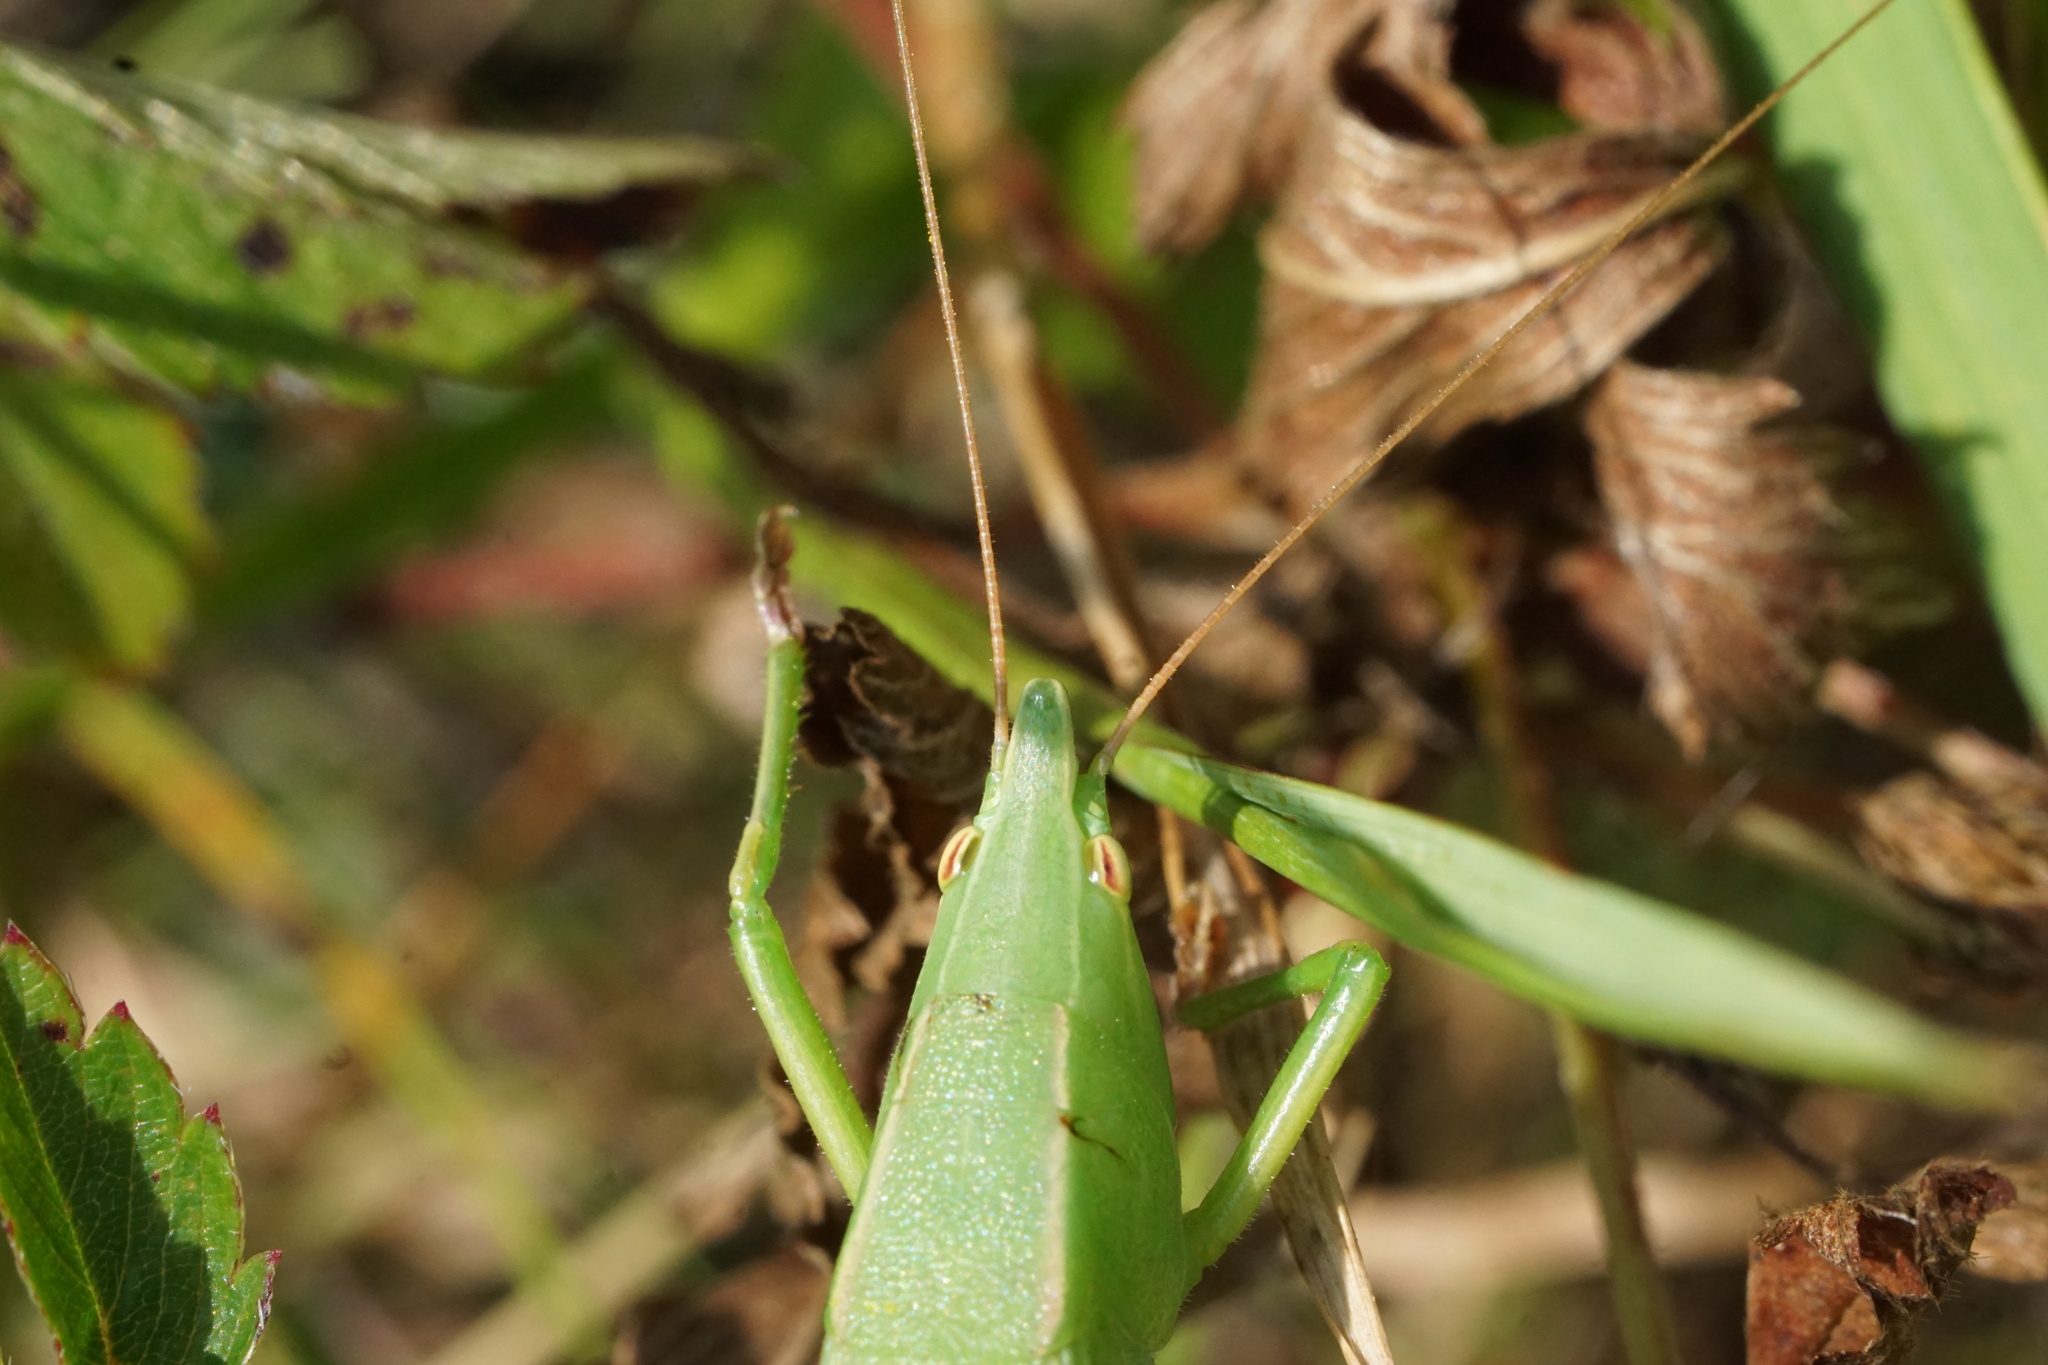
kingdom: Animalia
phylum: Arthropoda
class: Insecta
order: Orthoptera
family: Tettigoniidae
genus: Neoconocephalus
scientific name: Neoconocephalus ensiger
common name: Swordbearer
